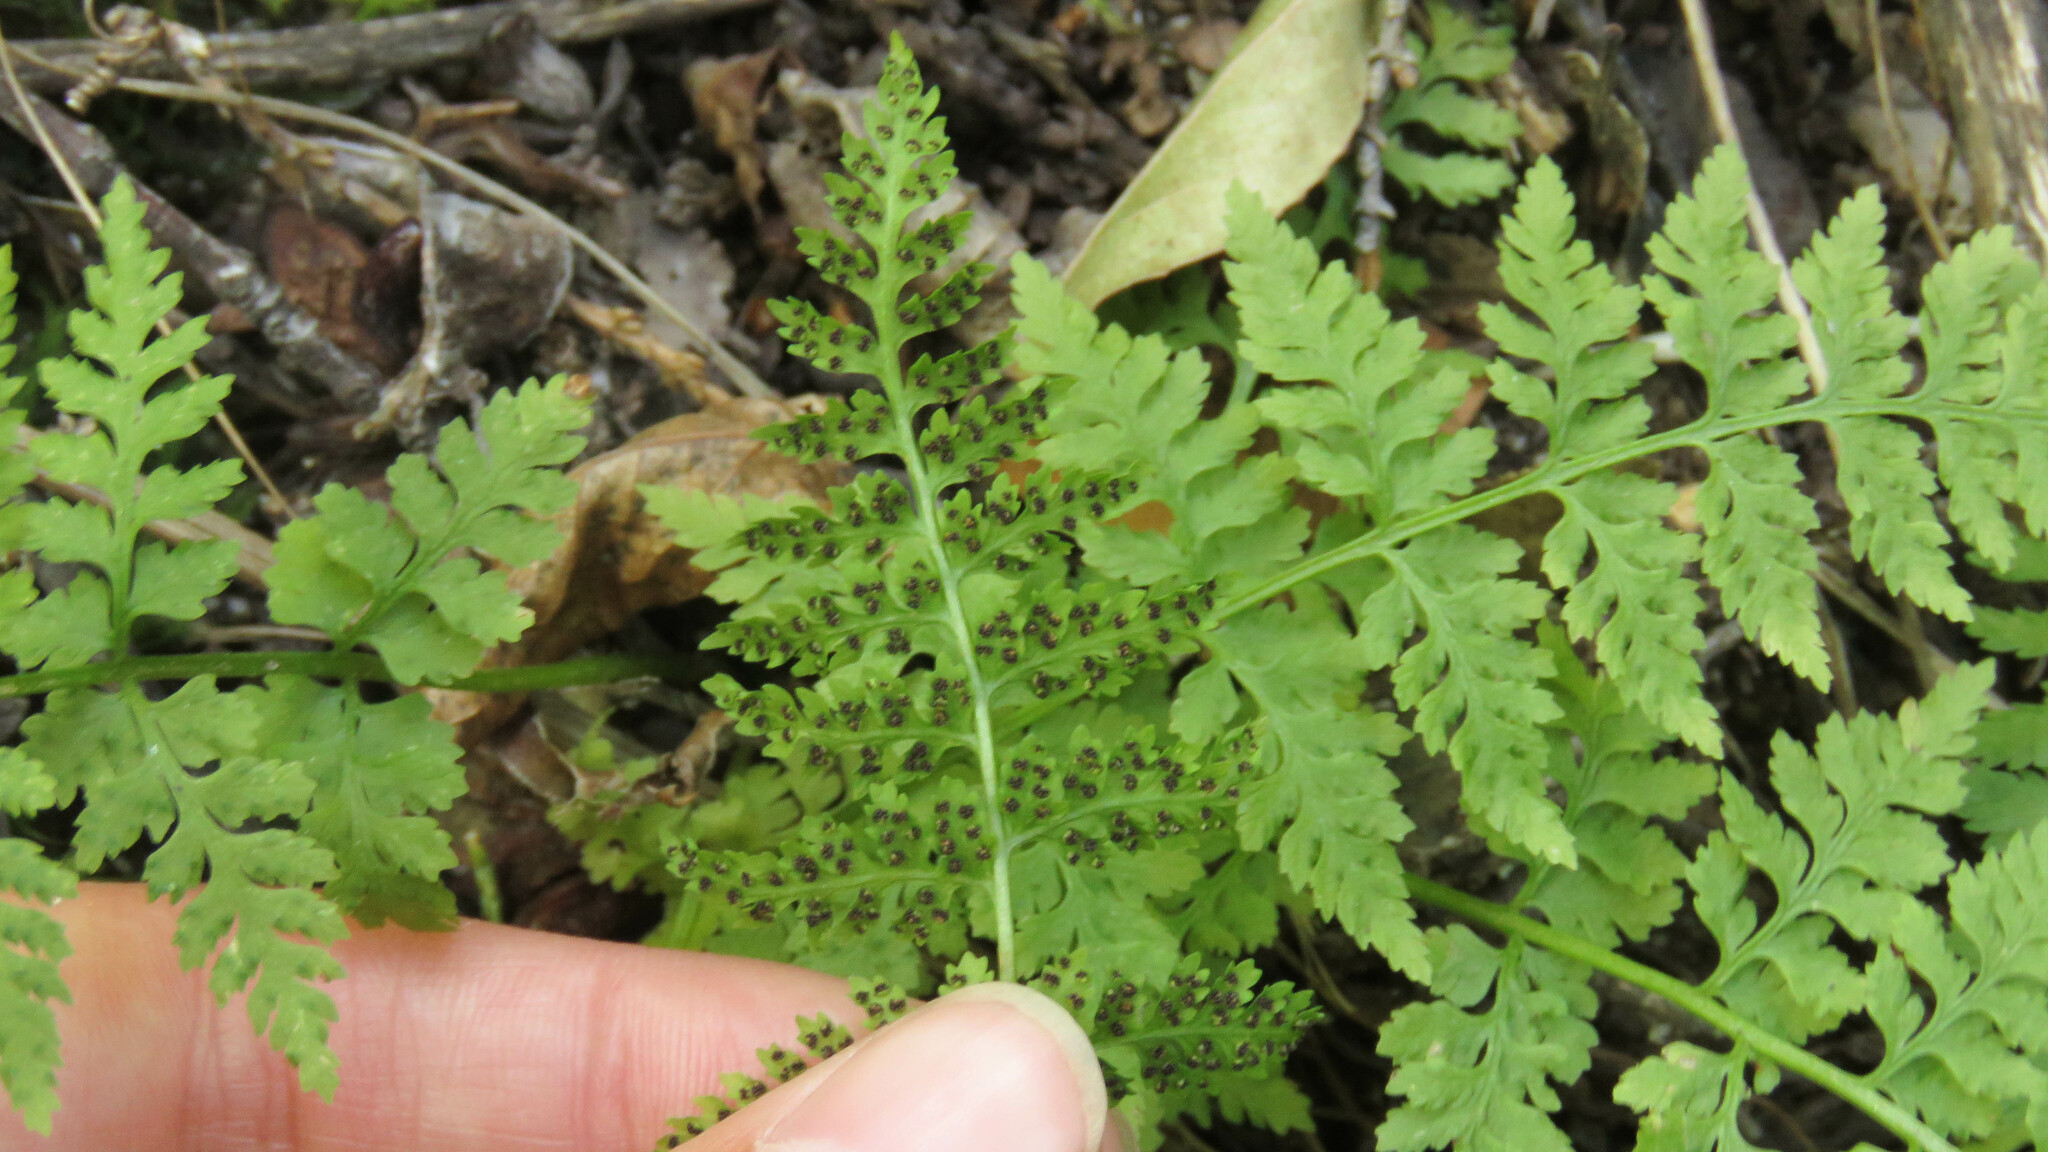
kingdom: Plantae
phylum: Tracheophyta
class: Polypodiopsida
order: Polypodiales
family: Cystopteridaceae
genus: Cystopteris
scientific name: Cystopteris fragilis
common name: Brittle bladder fern
